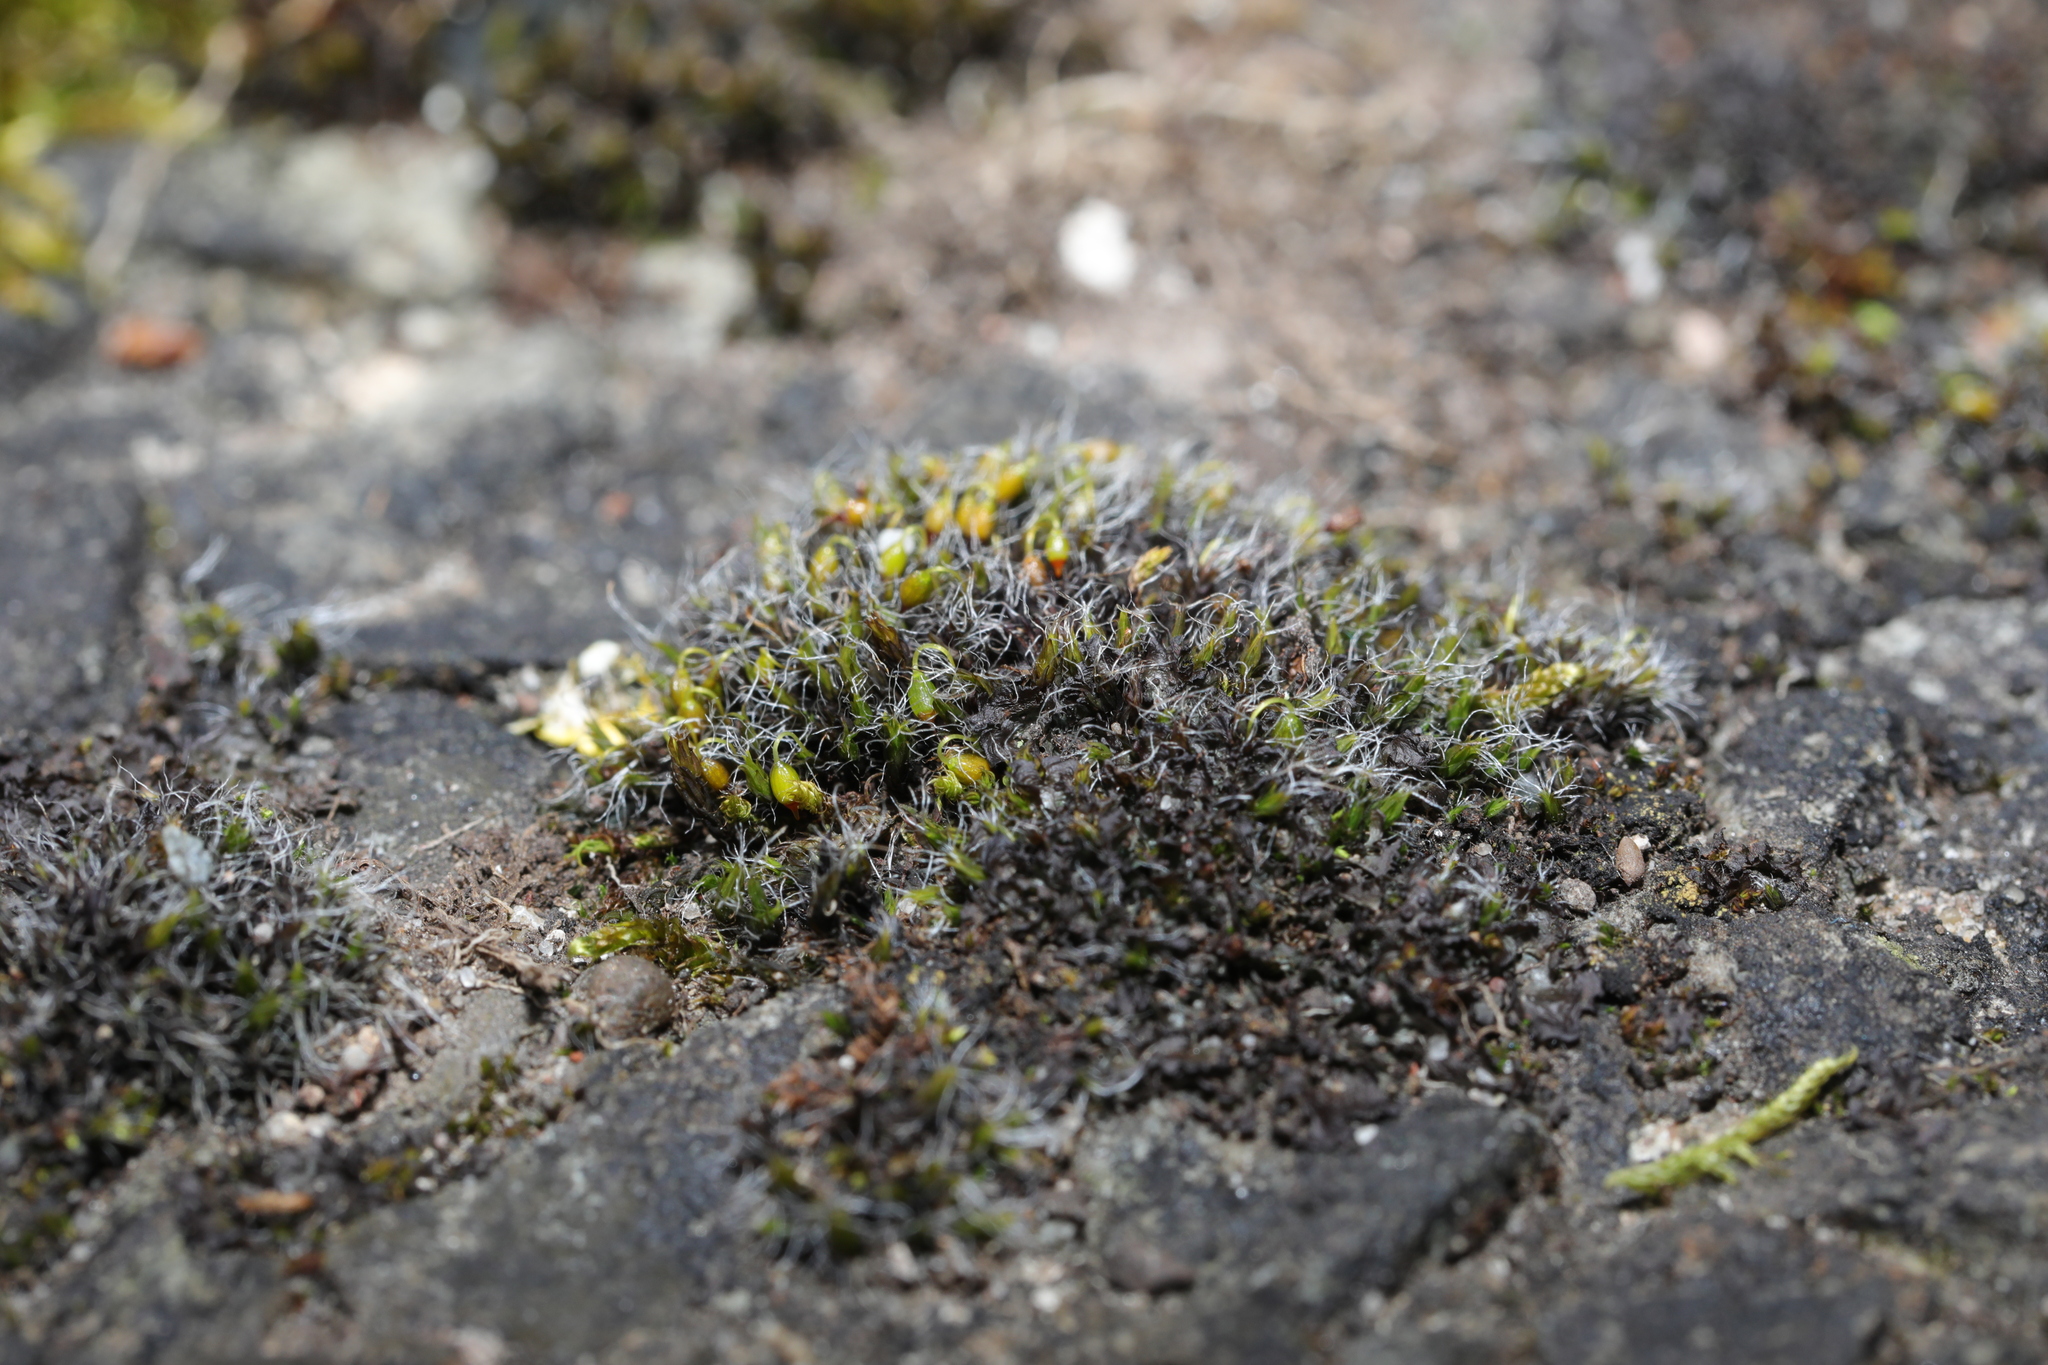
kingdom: Plantae
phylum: Bryophyta
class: Bryopsida
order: Grimmiales
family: Grimmiaceae
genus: Grimmia
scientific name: Grimmia pulvinata
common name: Grey-cushioned grimmia
